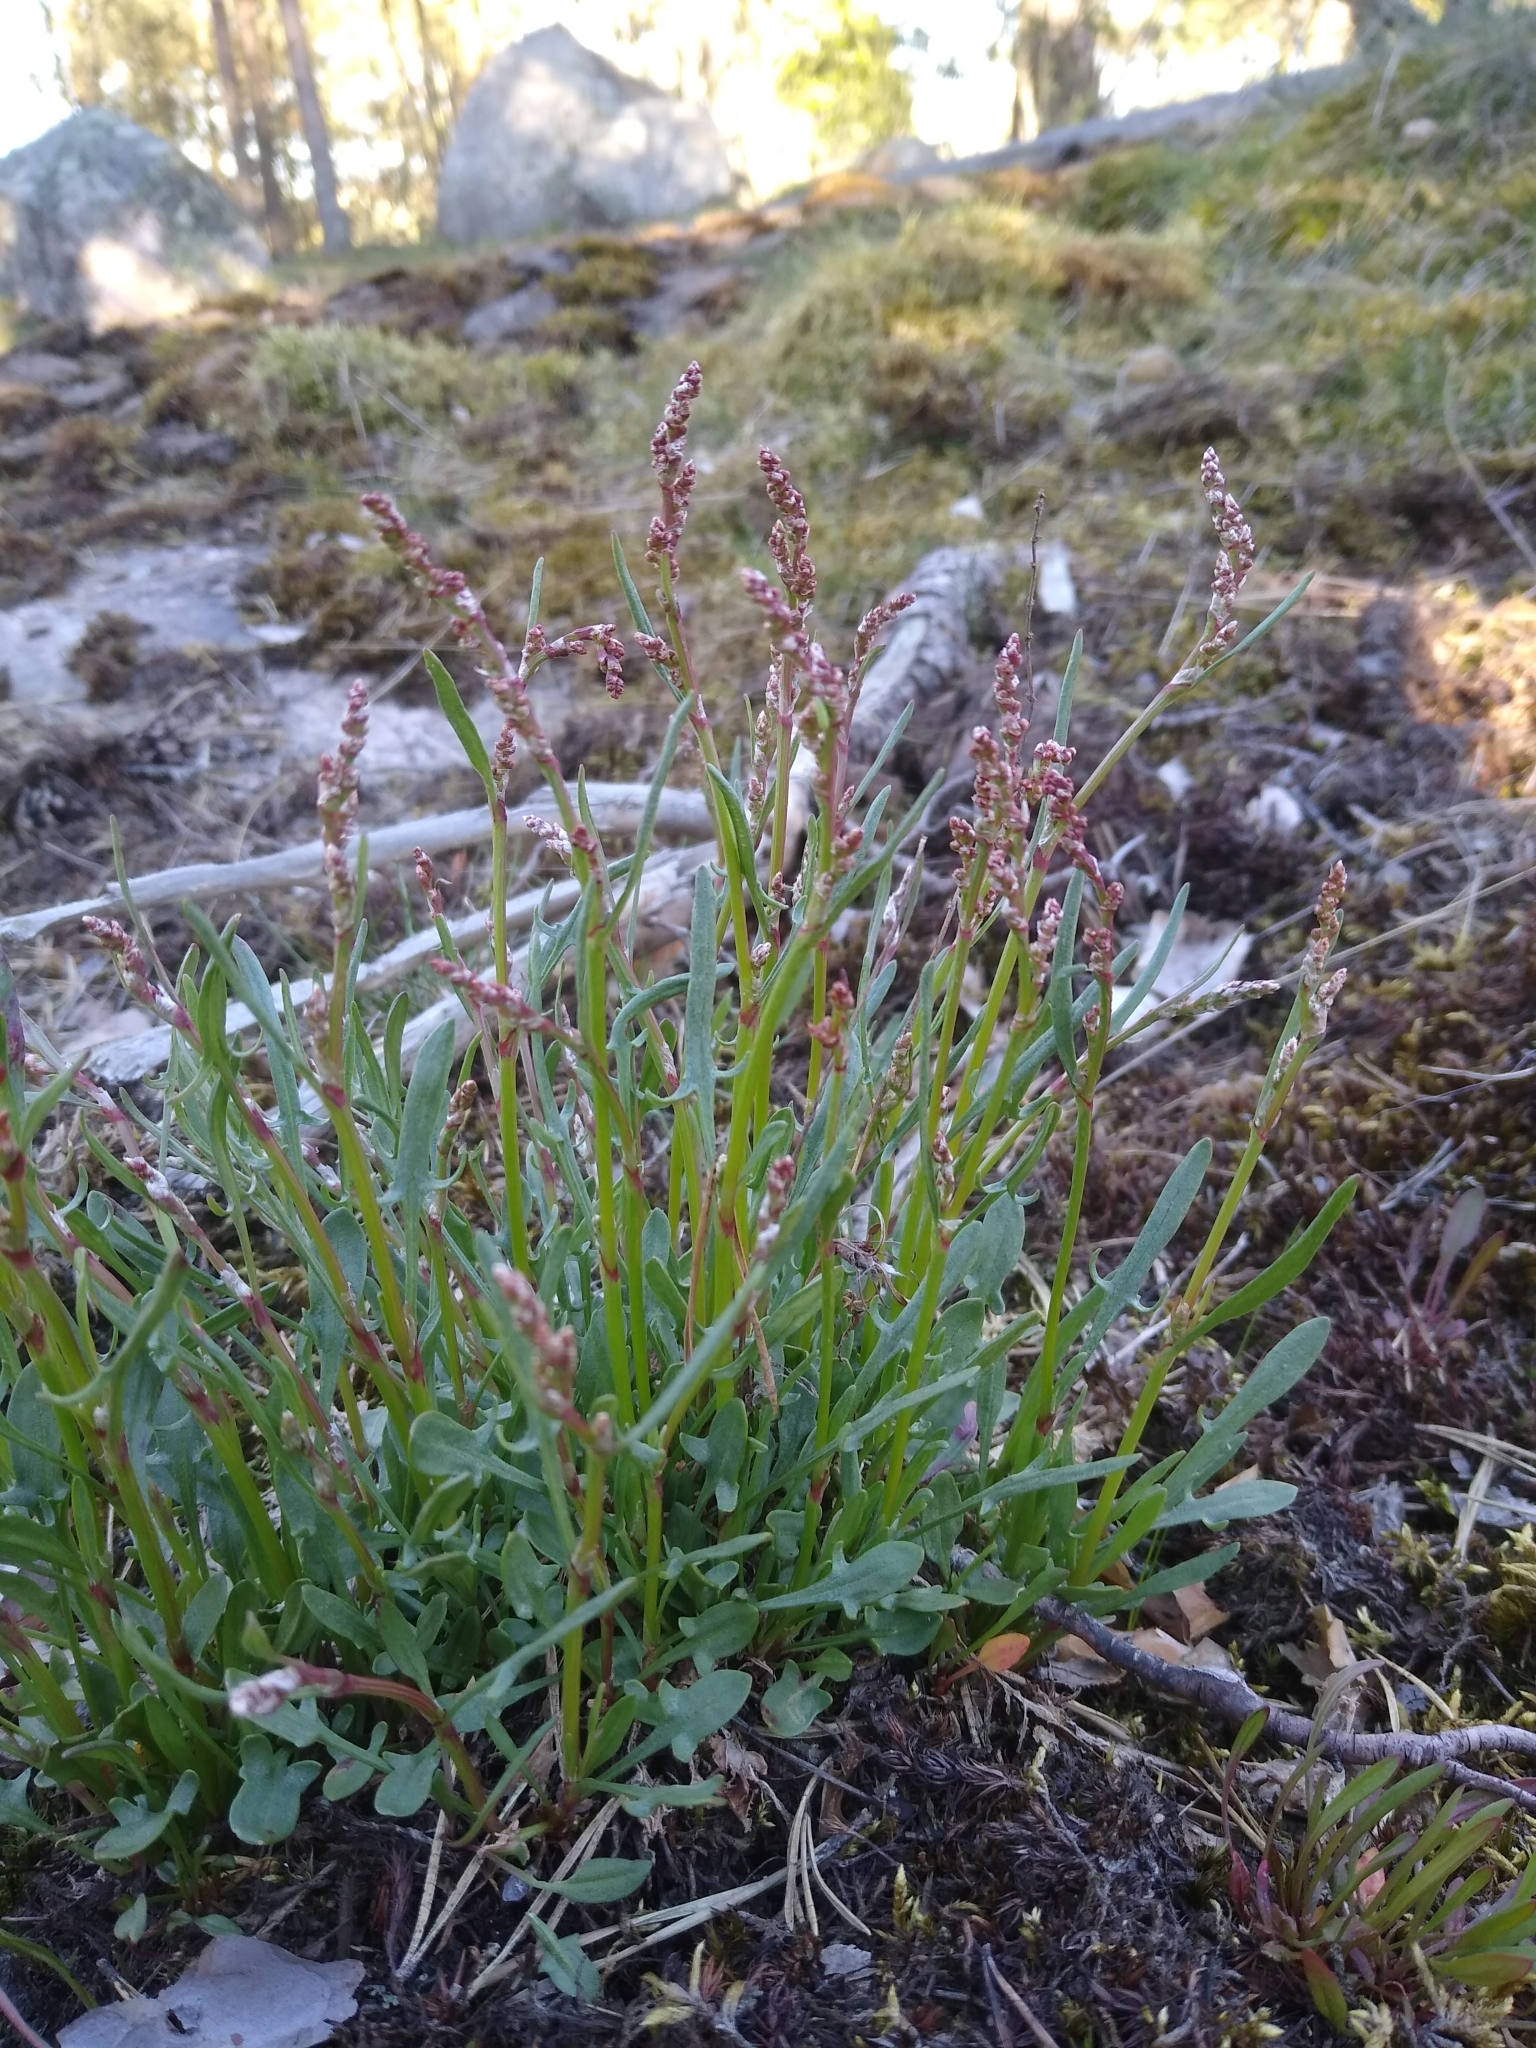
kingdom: Plantae
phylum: Tracheophyta
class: Magnoliopsida
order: Caryophyllales
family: Polygonaceae
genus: Rumex
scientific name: Rumex acetosella
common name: Common sheep sorrel
